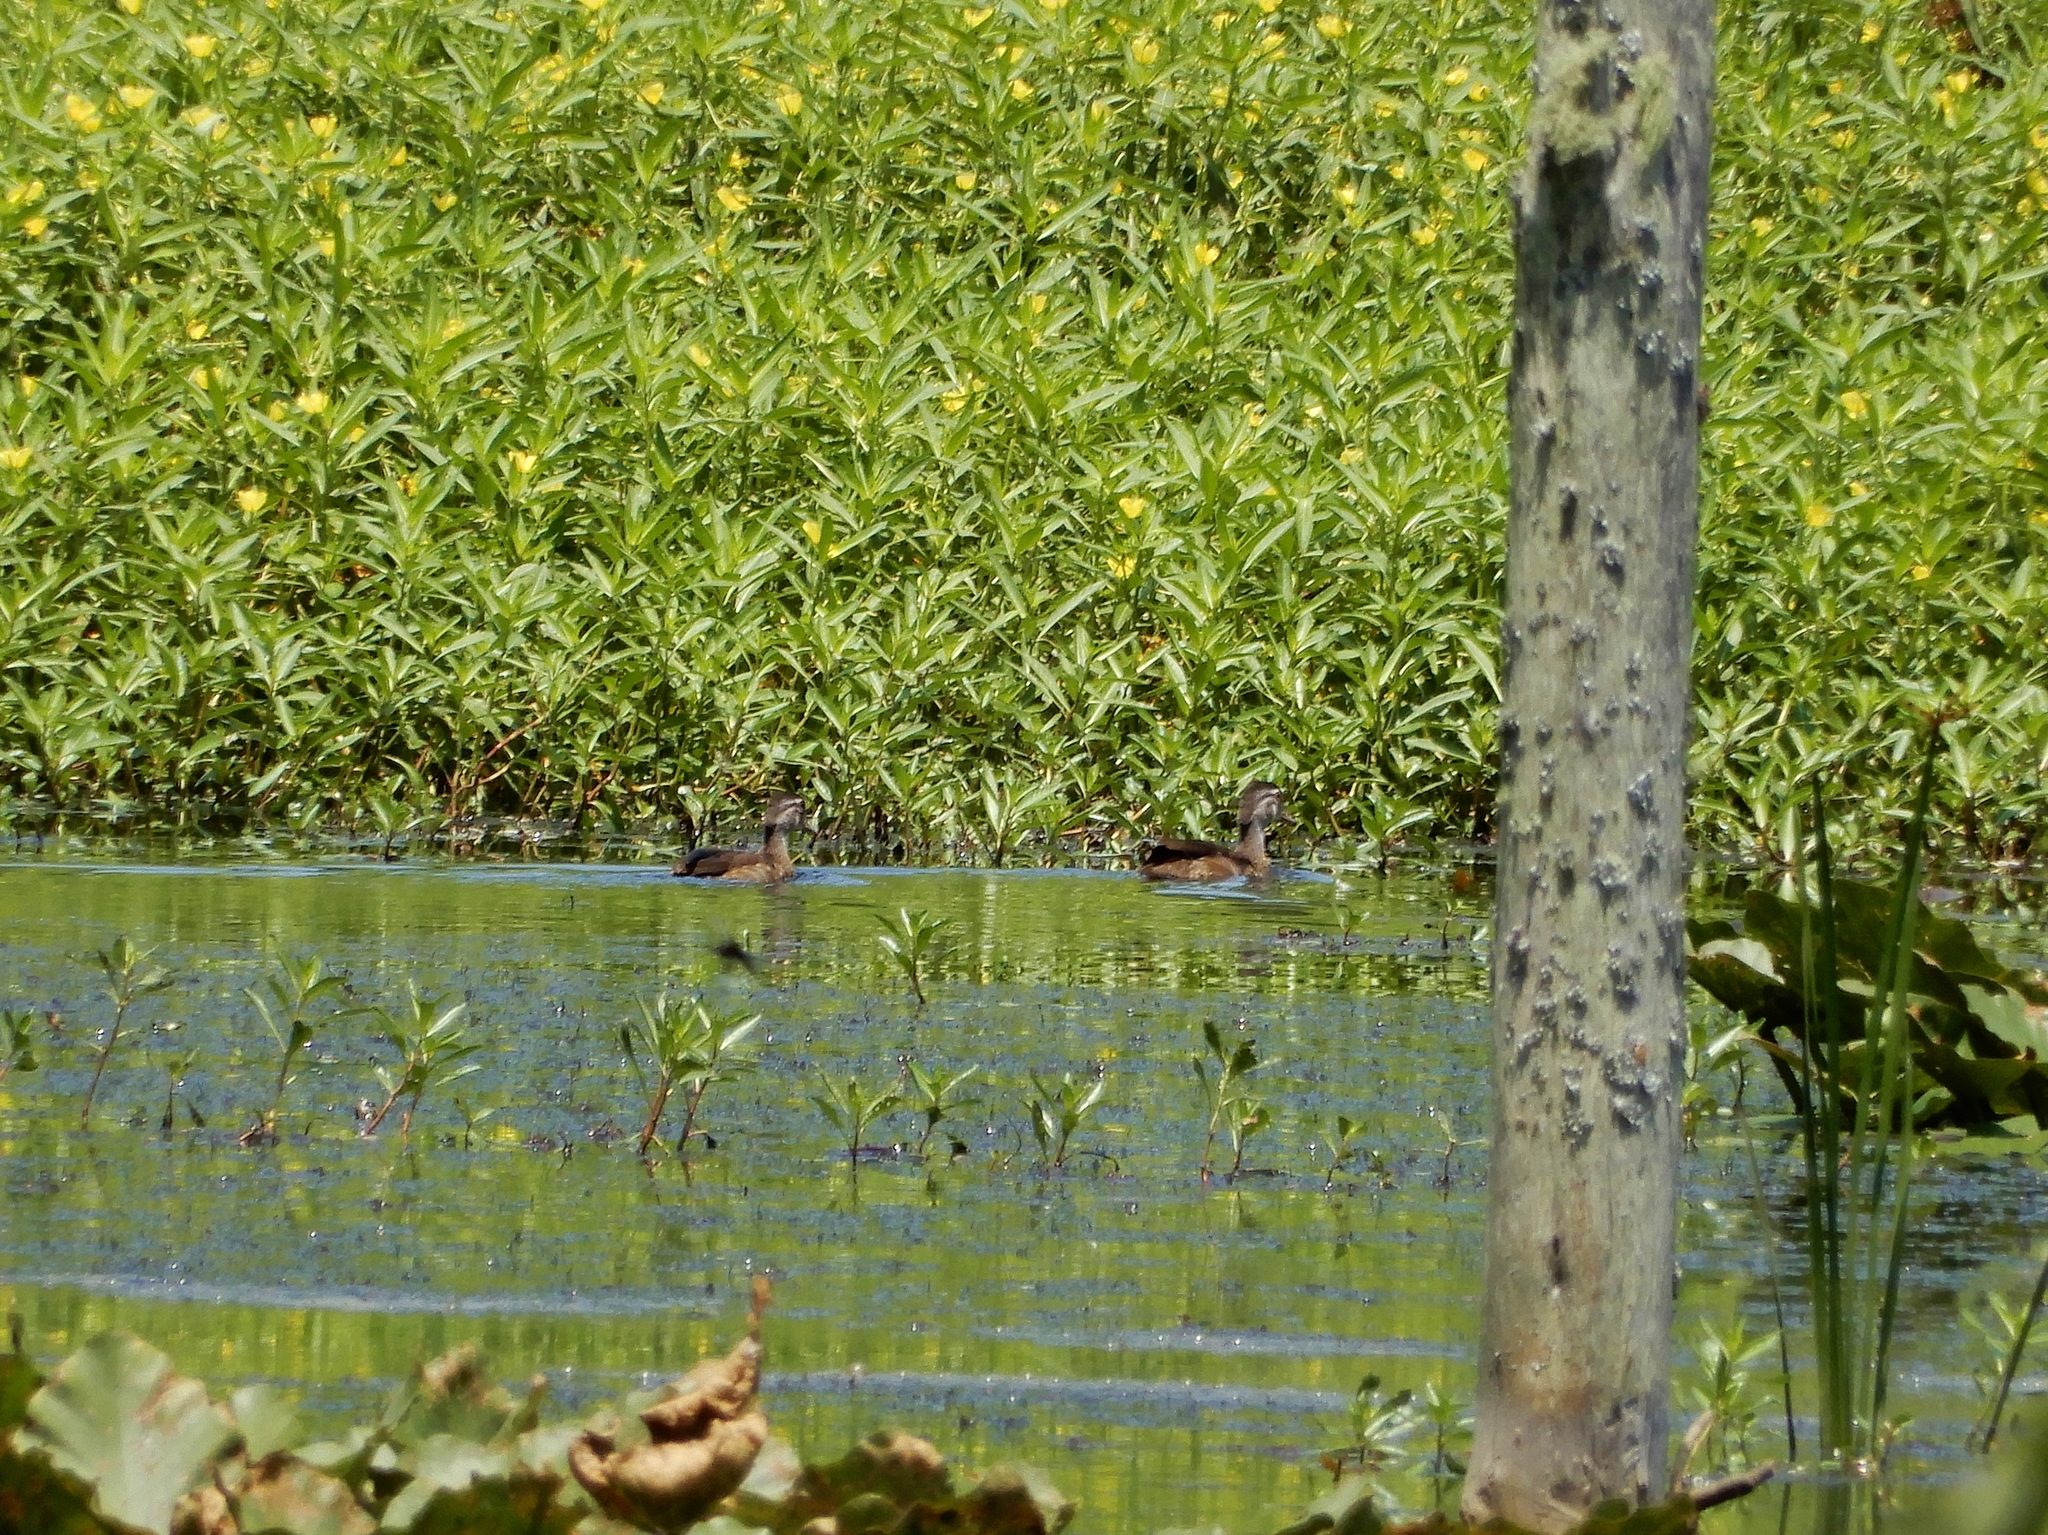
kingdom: Animalia
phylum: Chordata
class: Aves
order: Anseriformes
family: Anatidae
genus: Aix
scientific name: Aix sponsa
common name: Wood duck
